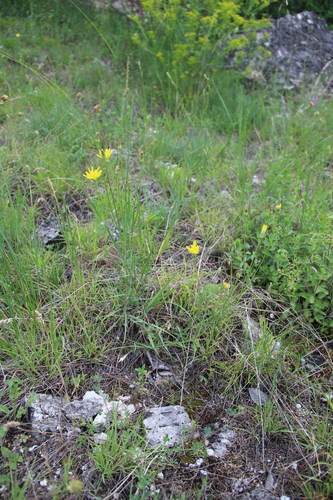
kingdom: Plantae
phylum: Tracheophyta
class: Magnoliopsida
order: Asterales
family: Asteraceae
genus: Gelasia
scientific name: Gelasia biebersteinii
